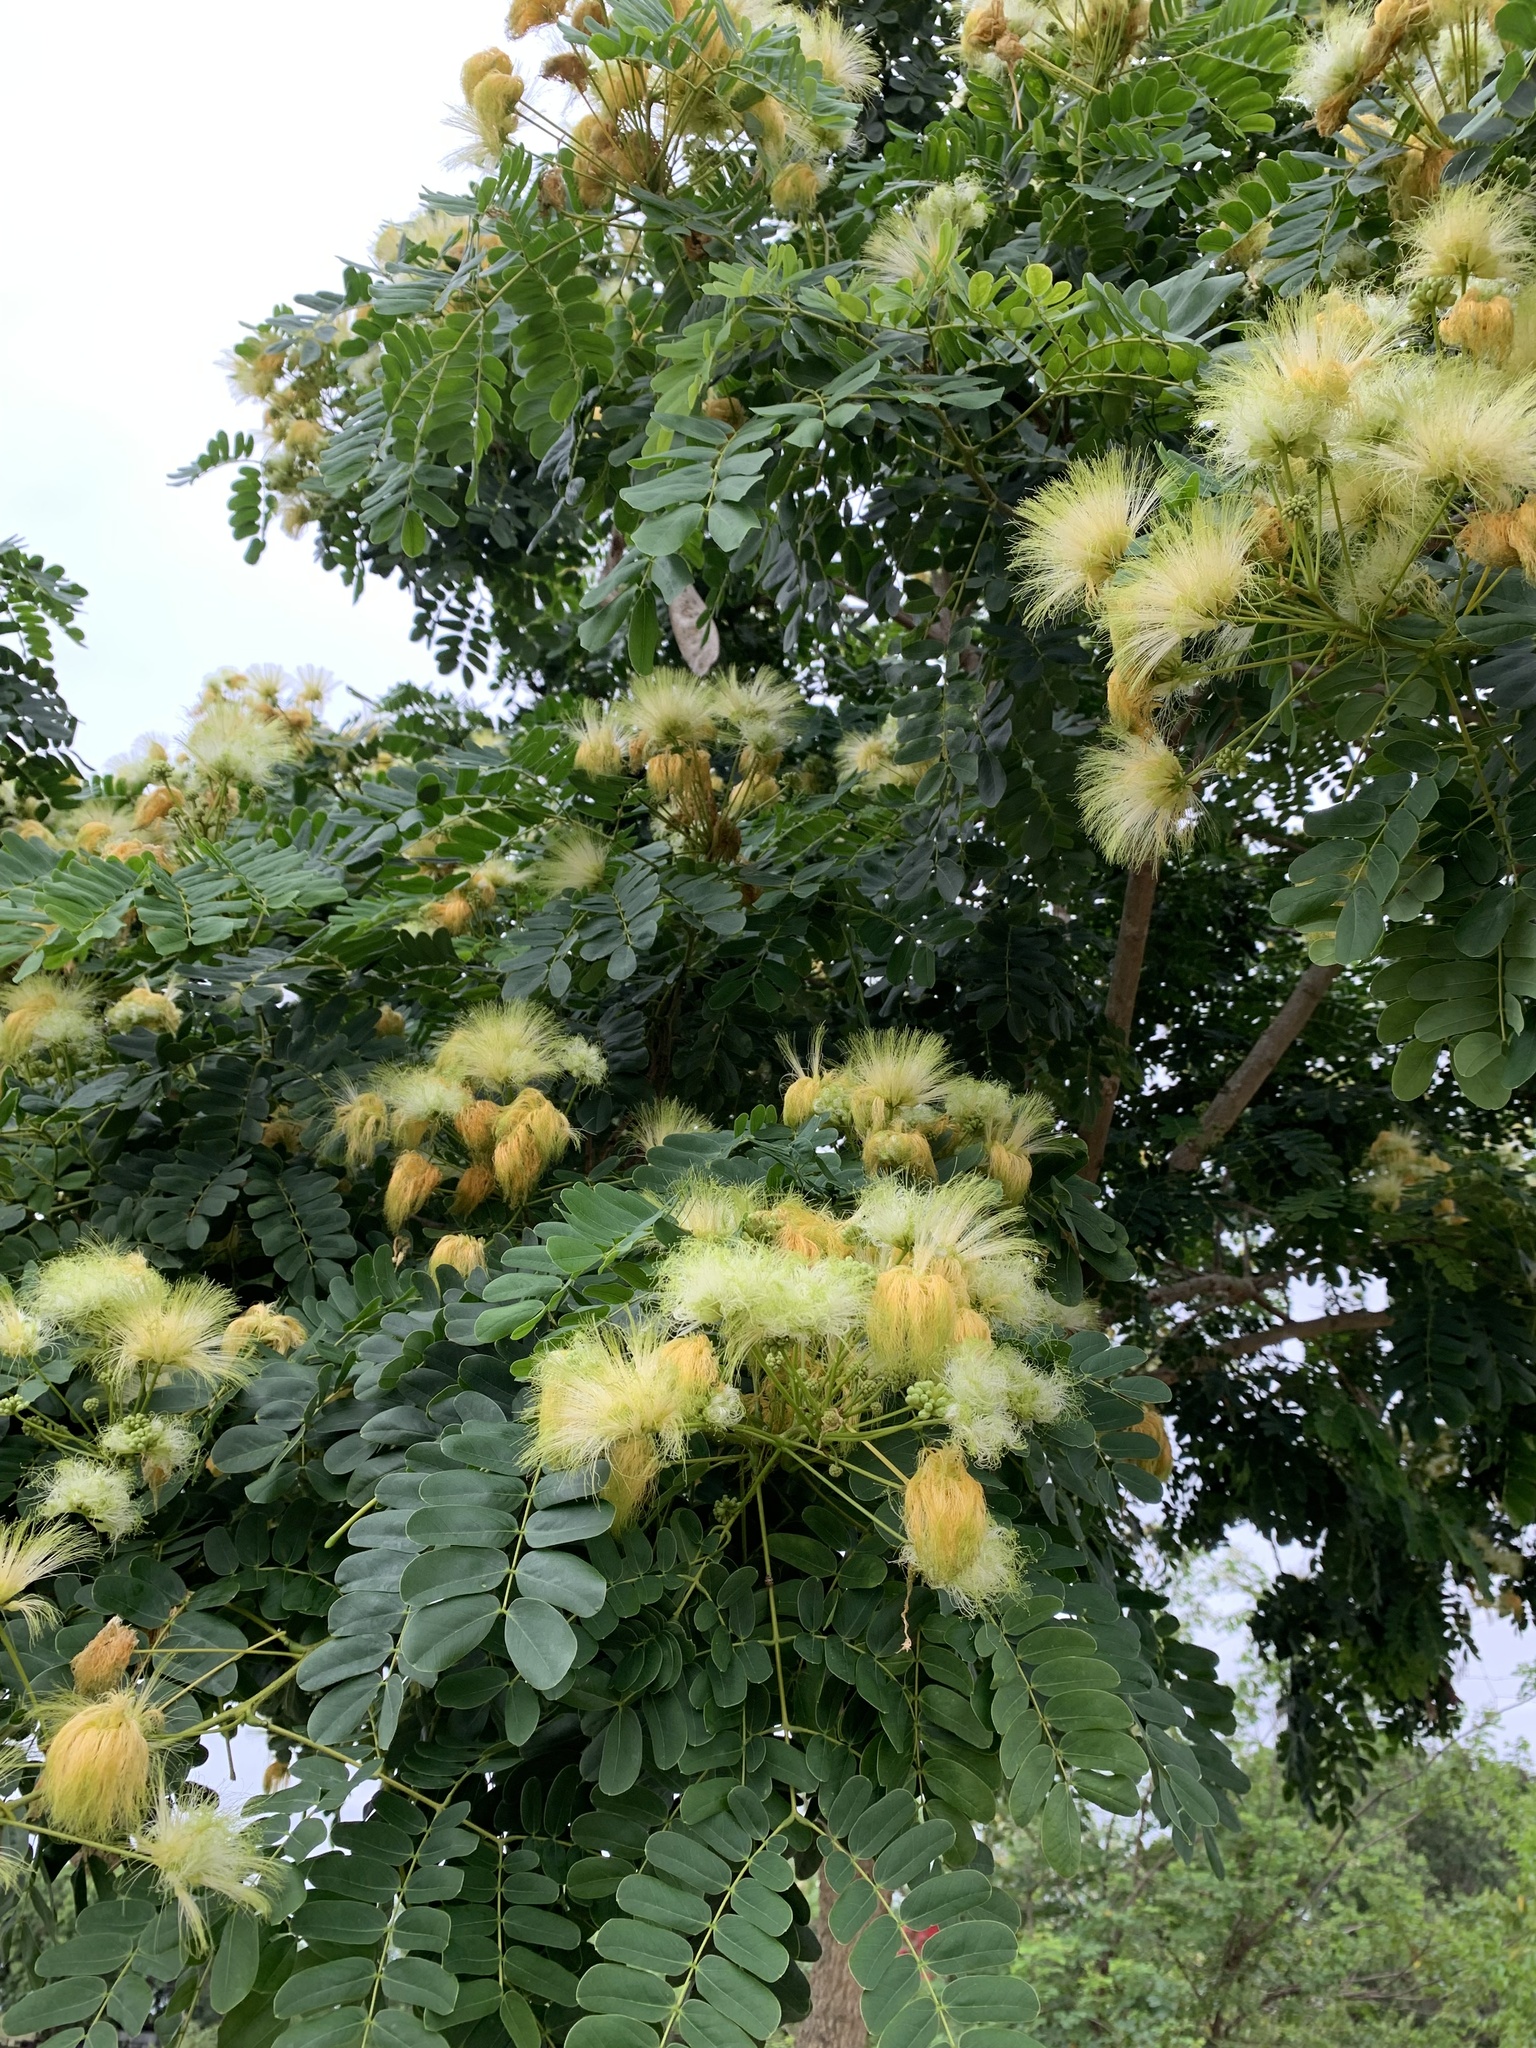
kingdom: Plantae
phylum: Tracheophyta
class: Magnoliopsida
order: Fabales
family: Fabaceae
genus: Albizia
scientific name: Albizia lebbeck
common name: Woman's tongue
